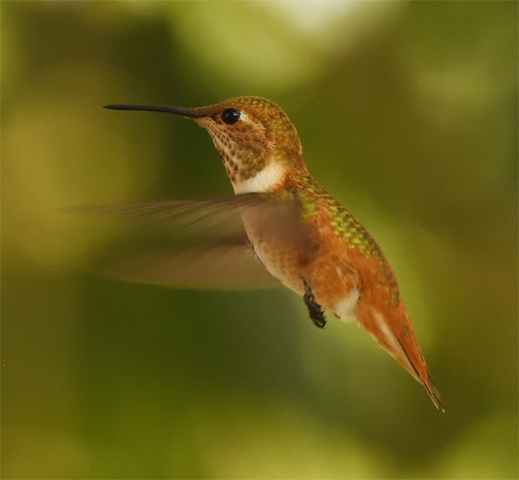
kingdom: Animalia
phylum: Chordata
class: Aves
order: Apodiformes
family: Trochilidae
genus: Selasphorus
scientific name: Selasphorus rufus
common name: Rufous hummingbird
